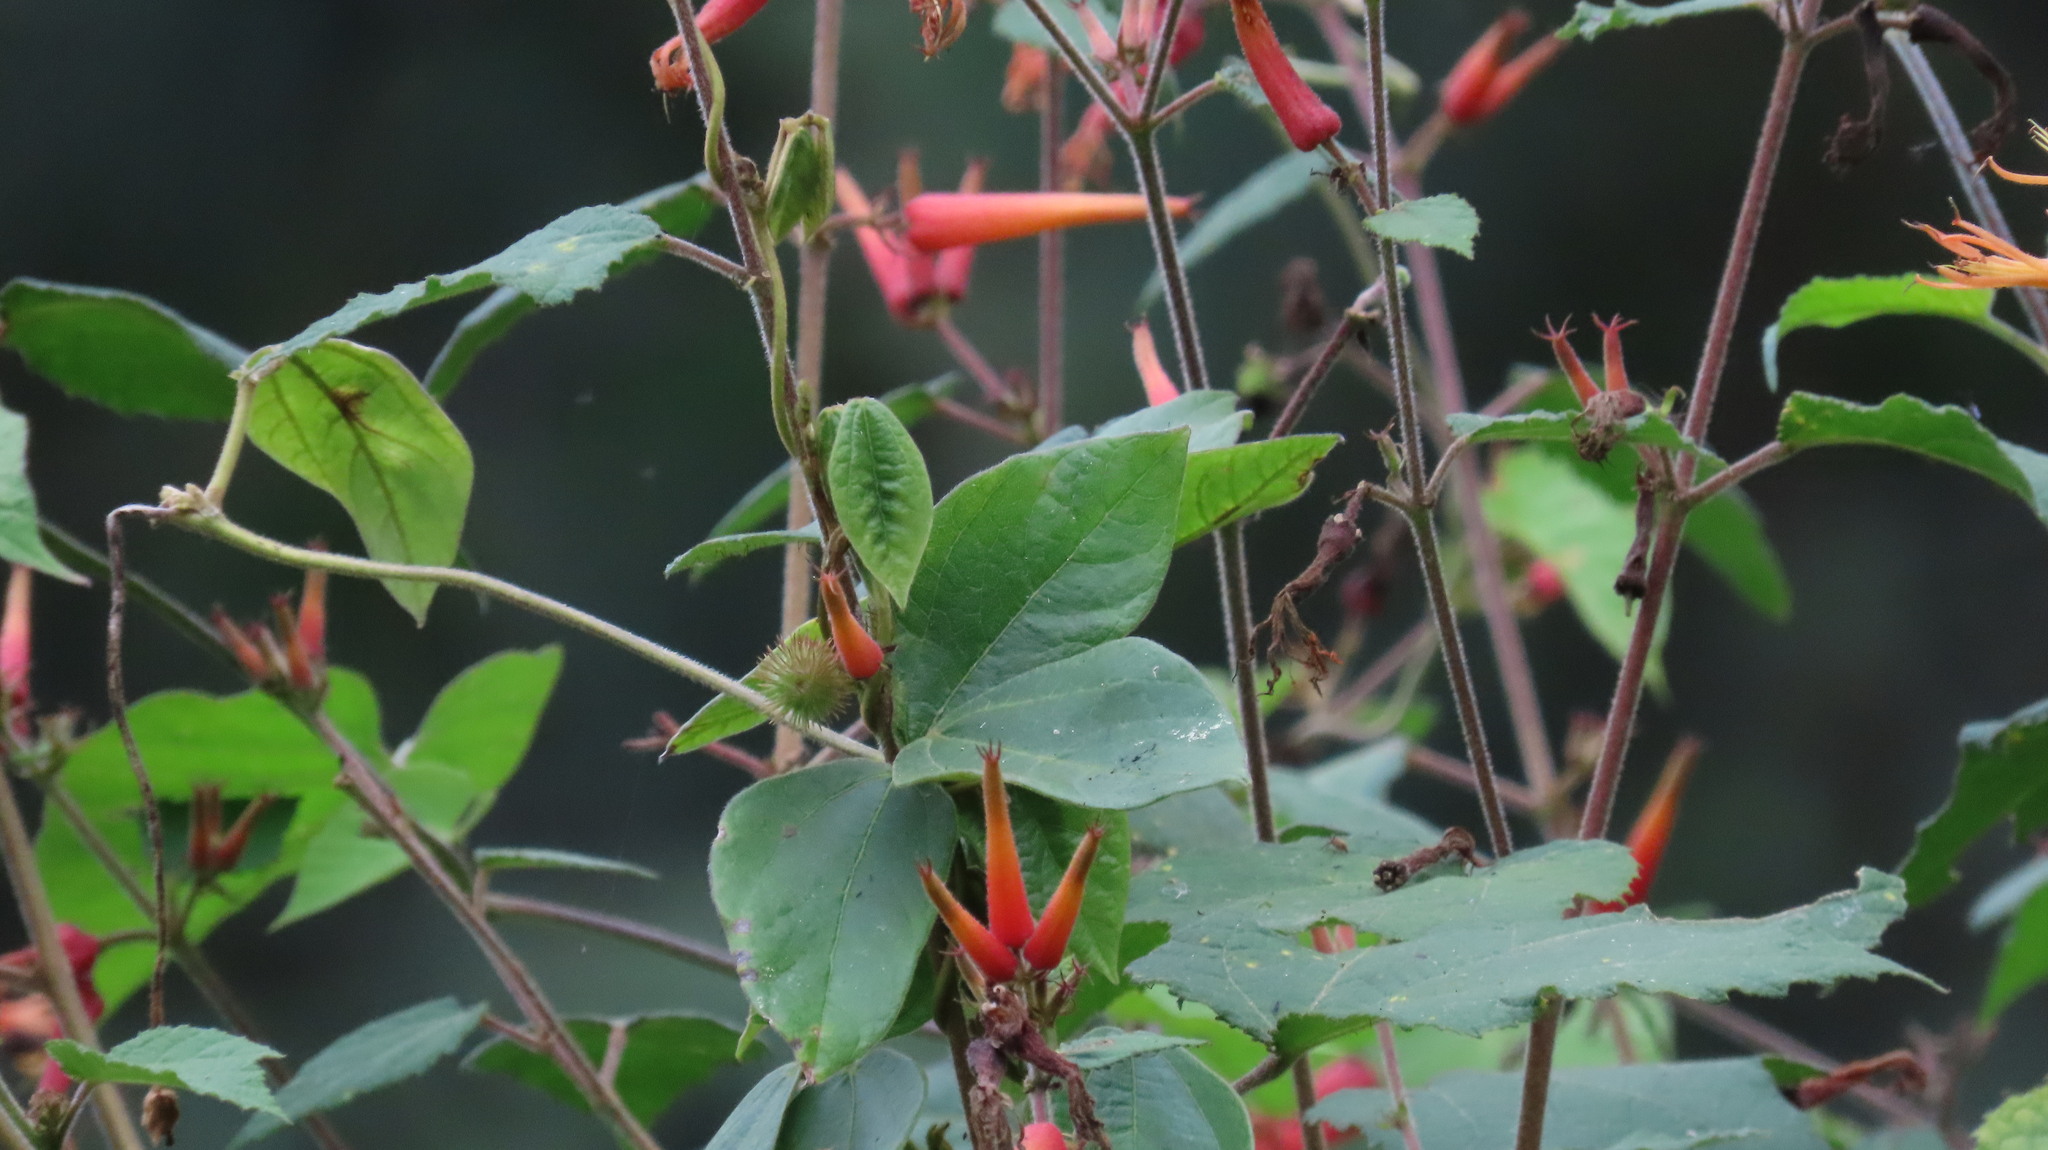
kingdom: Plantae
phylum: Tracheophyta
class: Magnoliopsida
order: Malvales
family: Malvaceae
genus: Triumfetta
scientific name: Triumfetta speciosa
